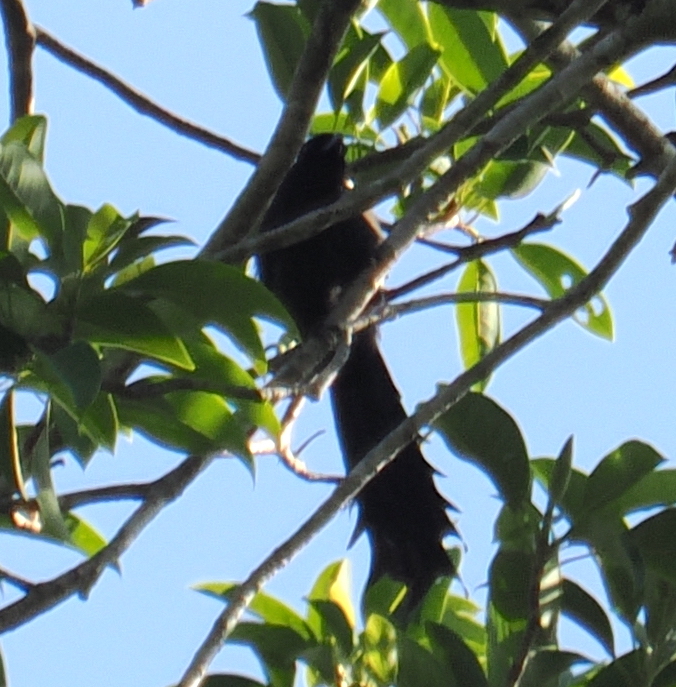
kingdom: Animalia
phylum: Chordata
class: Aves
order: Passeriformes
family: Corvidae
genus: Temnurus
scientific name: Temnurus temnurus
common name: Ratchet-tailed treepie
